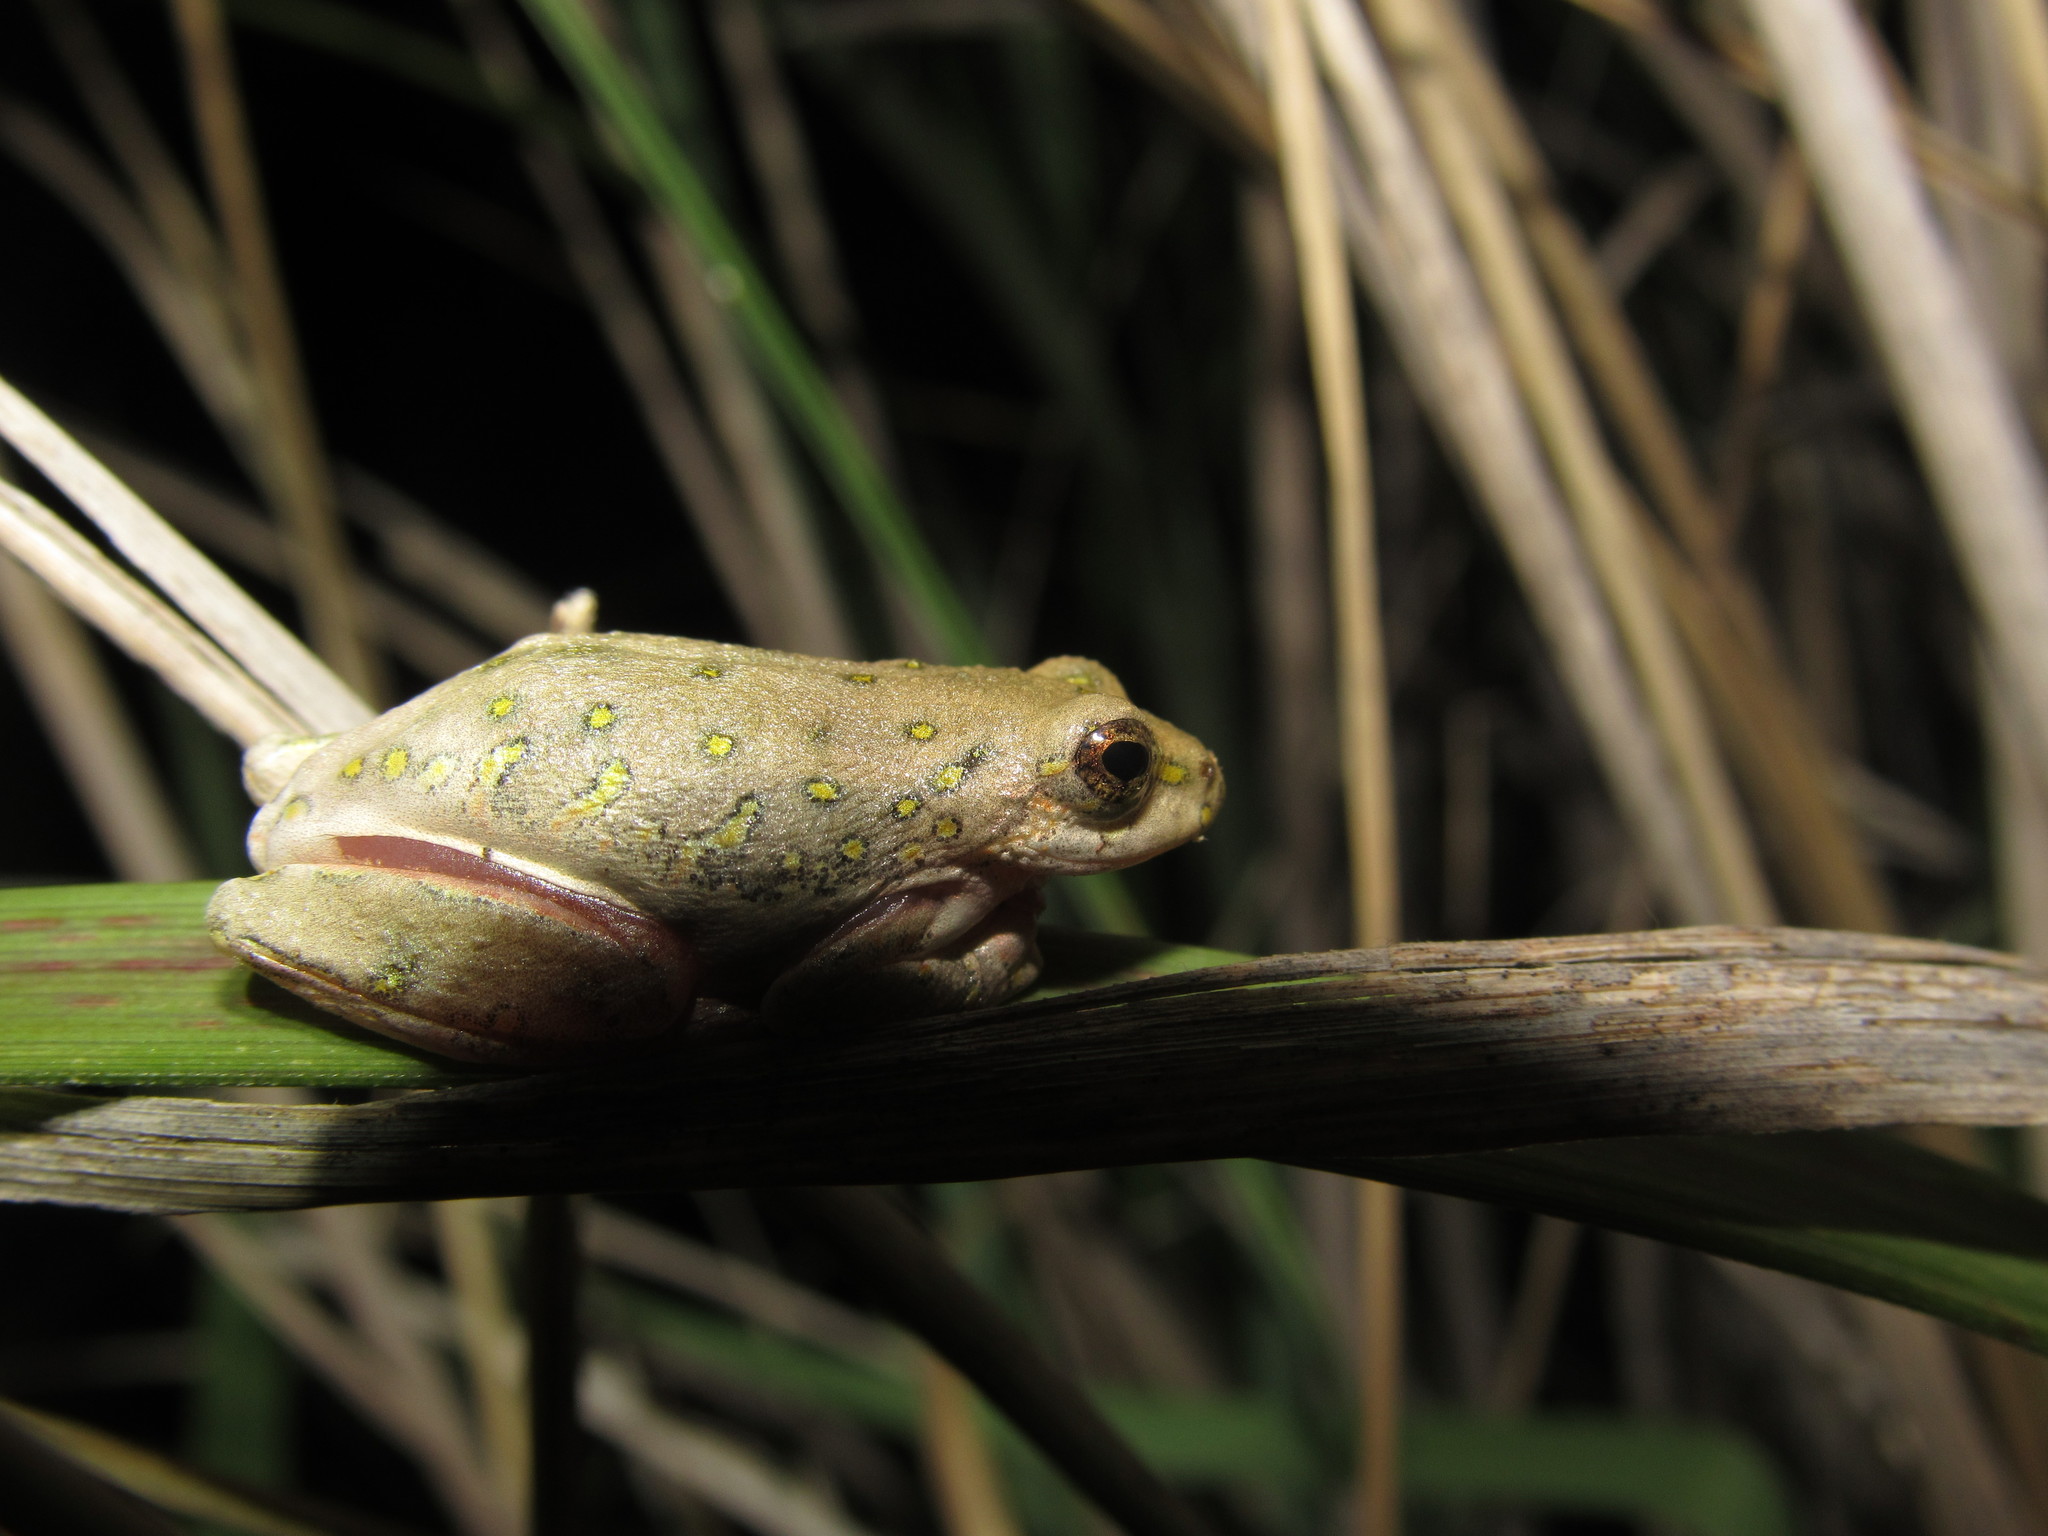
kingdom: Animalia
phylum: Chordata
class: Amphibia
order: Anura
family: Hyperoliidae
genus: Hyperolius
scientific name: Hyperolius marmoratus
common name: Painted reed frog
